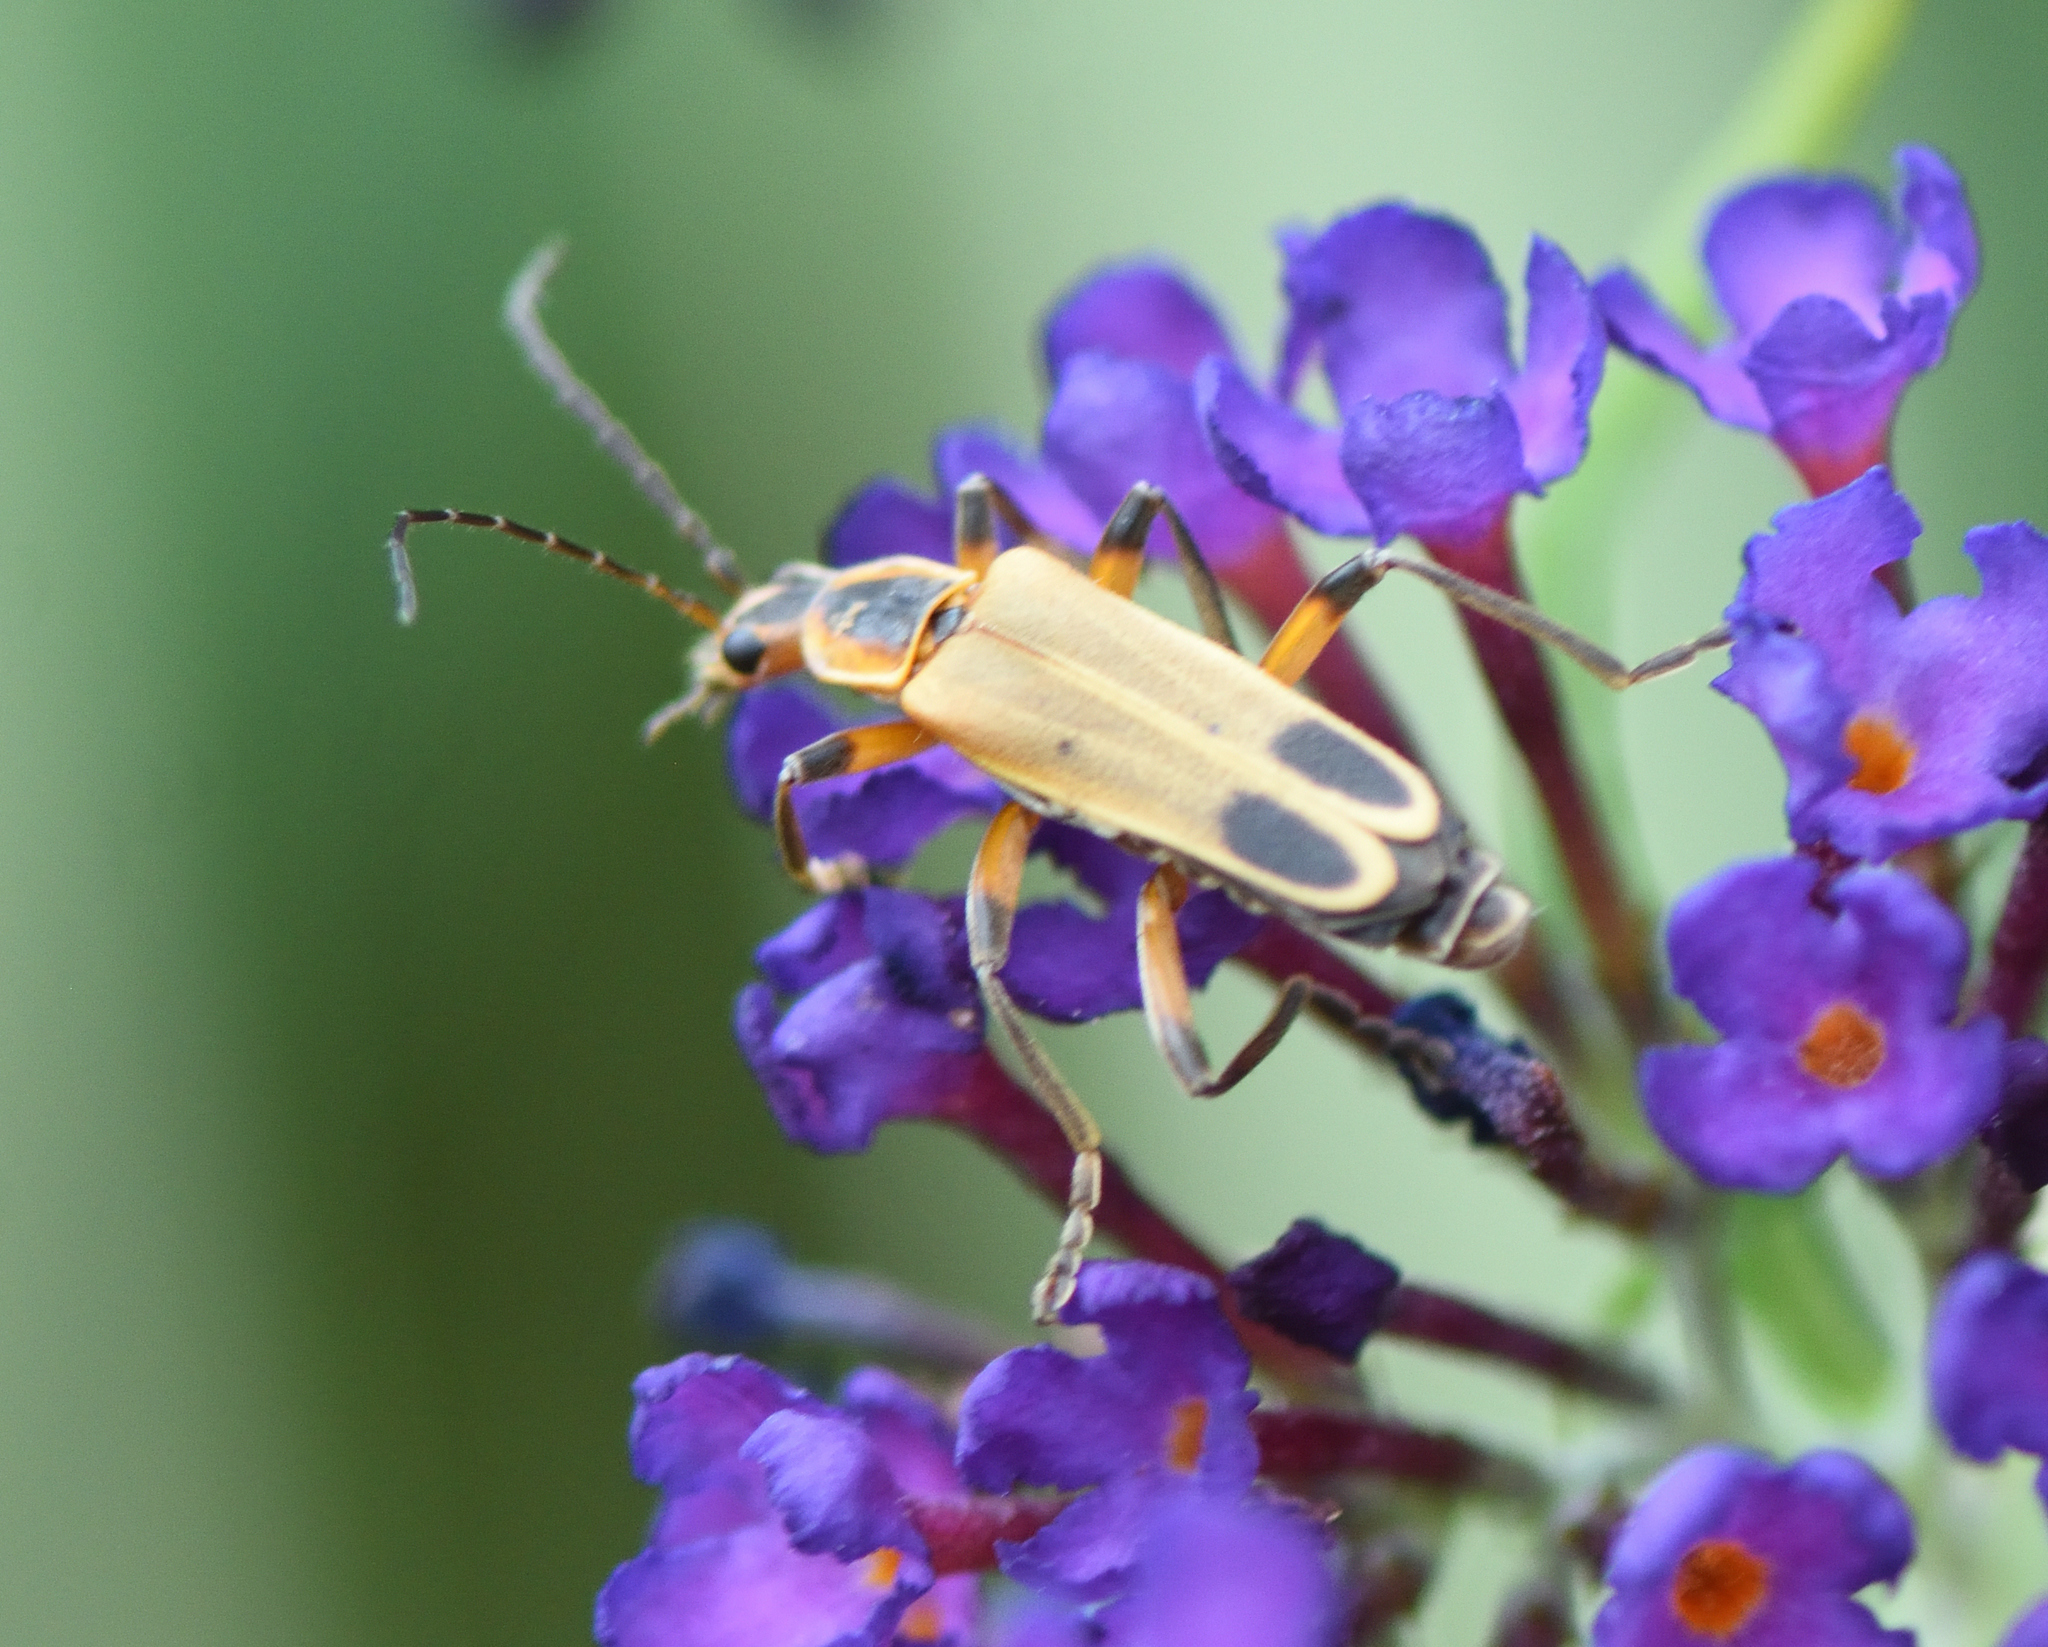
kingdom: Animalia
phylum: Arthropoda
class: Insecta
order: Coleoptera
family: Cantharidae
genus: Chauliognathus
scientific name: Chauliognathus marginatus
